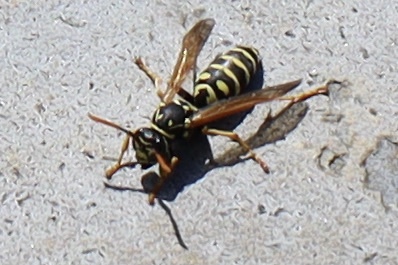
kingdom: Animalia
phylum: Arthropoda
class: Insecta
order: Hymenoptera
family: Eumenidae
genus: Polistes
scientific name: Polistes dominula
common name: Paper wasp
